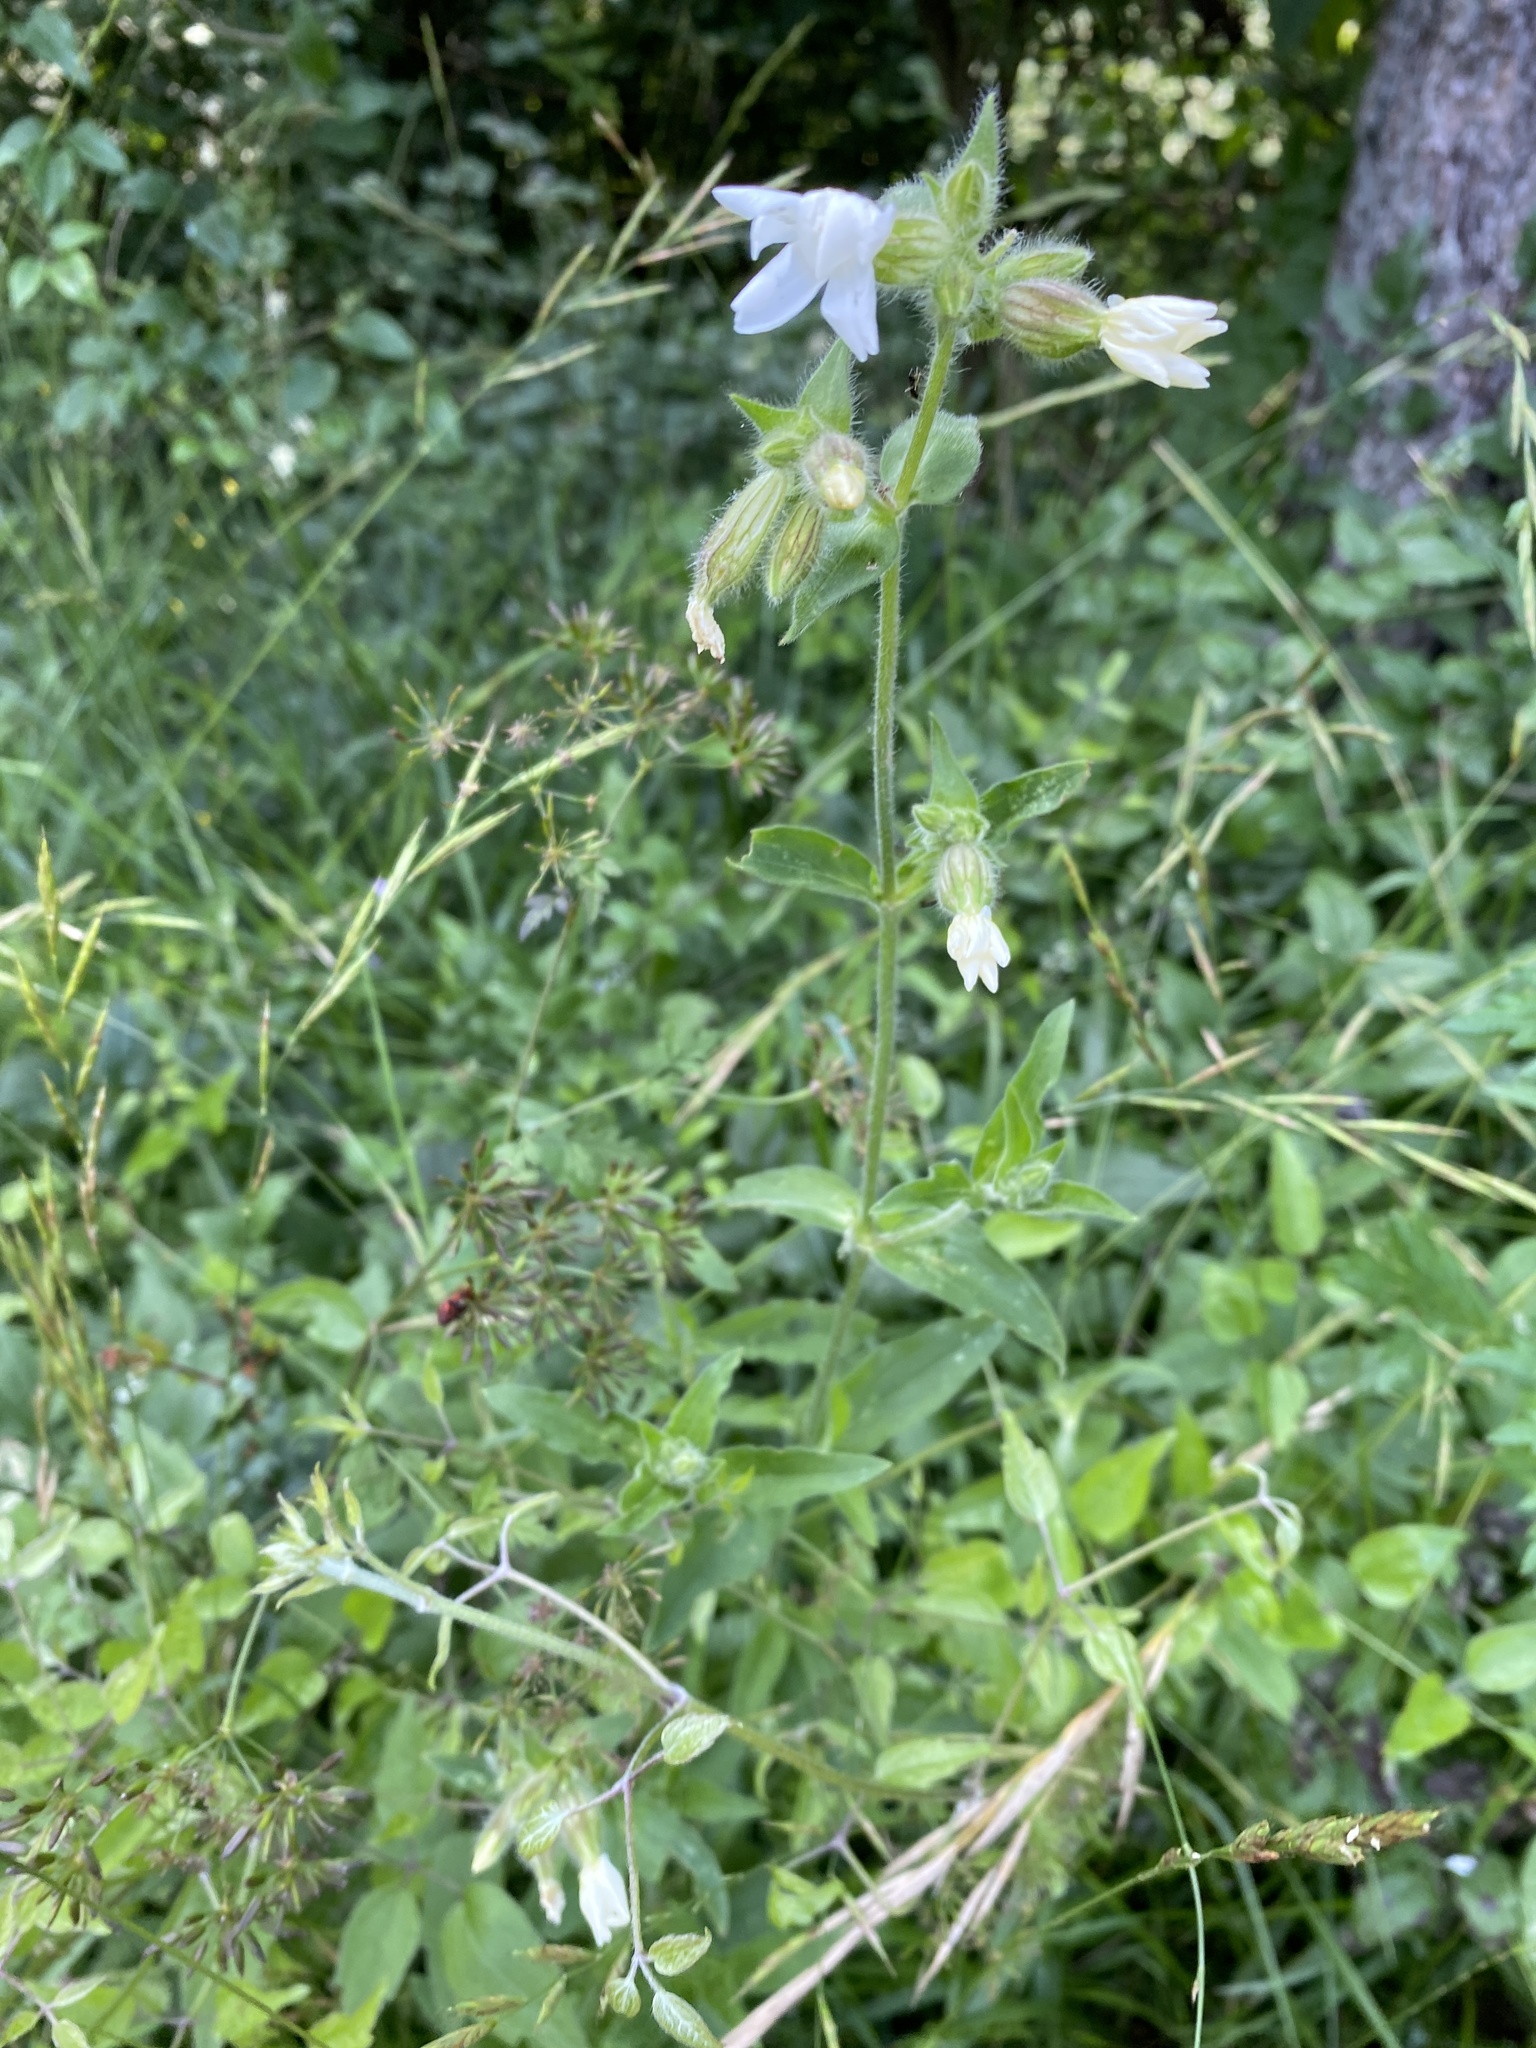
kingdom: Plantae
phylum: Tracheophyta
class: Magnoliopsida
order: Caryophyllales
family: Caryophyllaceae
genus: Silene
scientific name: Silene latifolia
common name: White campion
